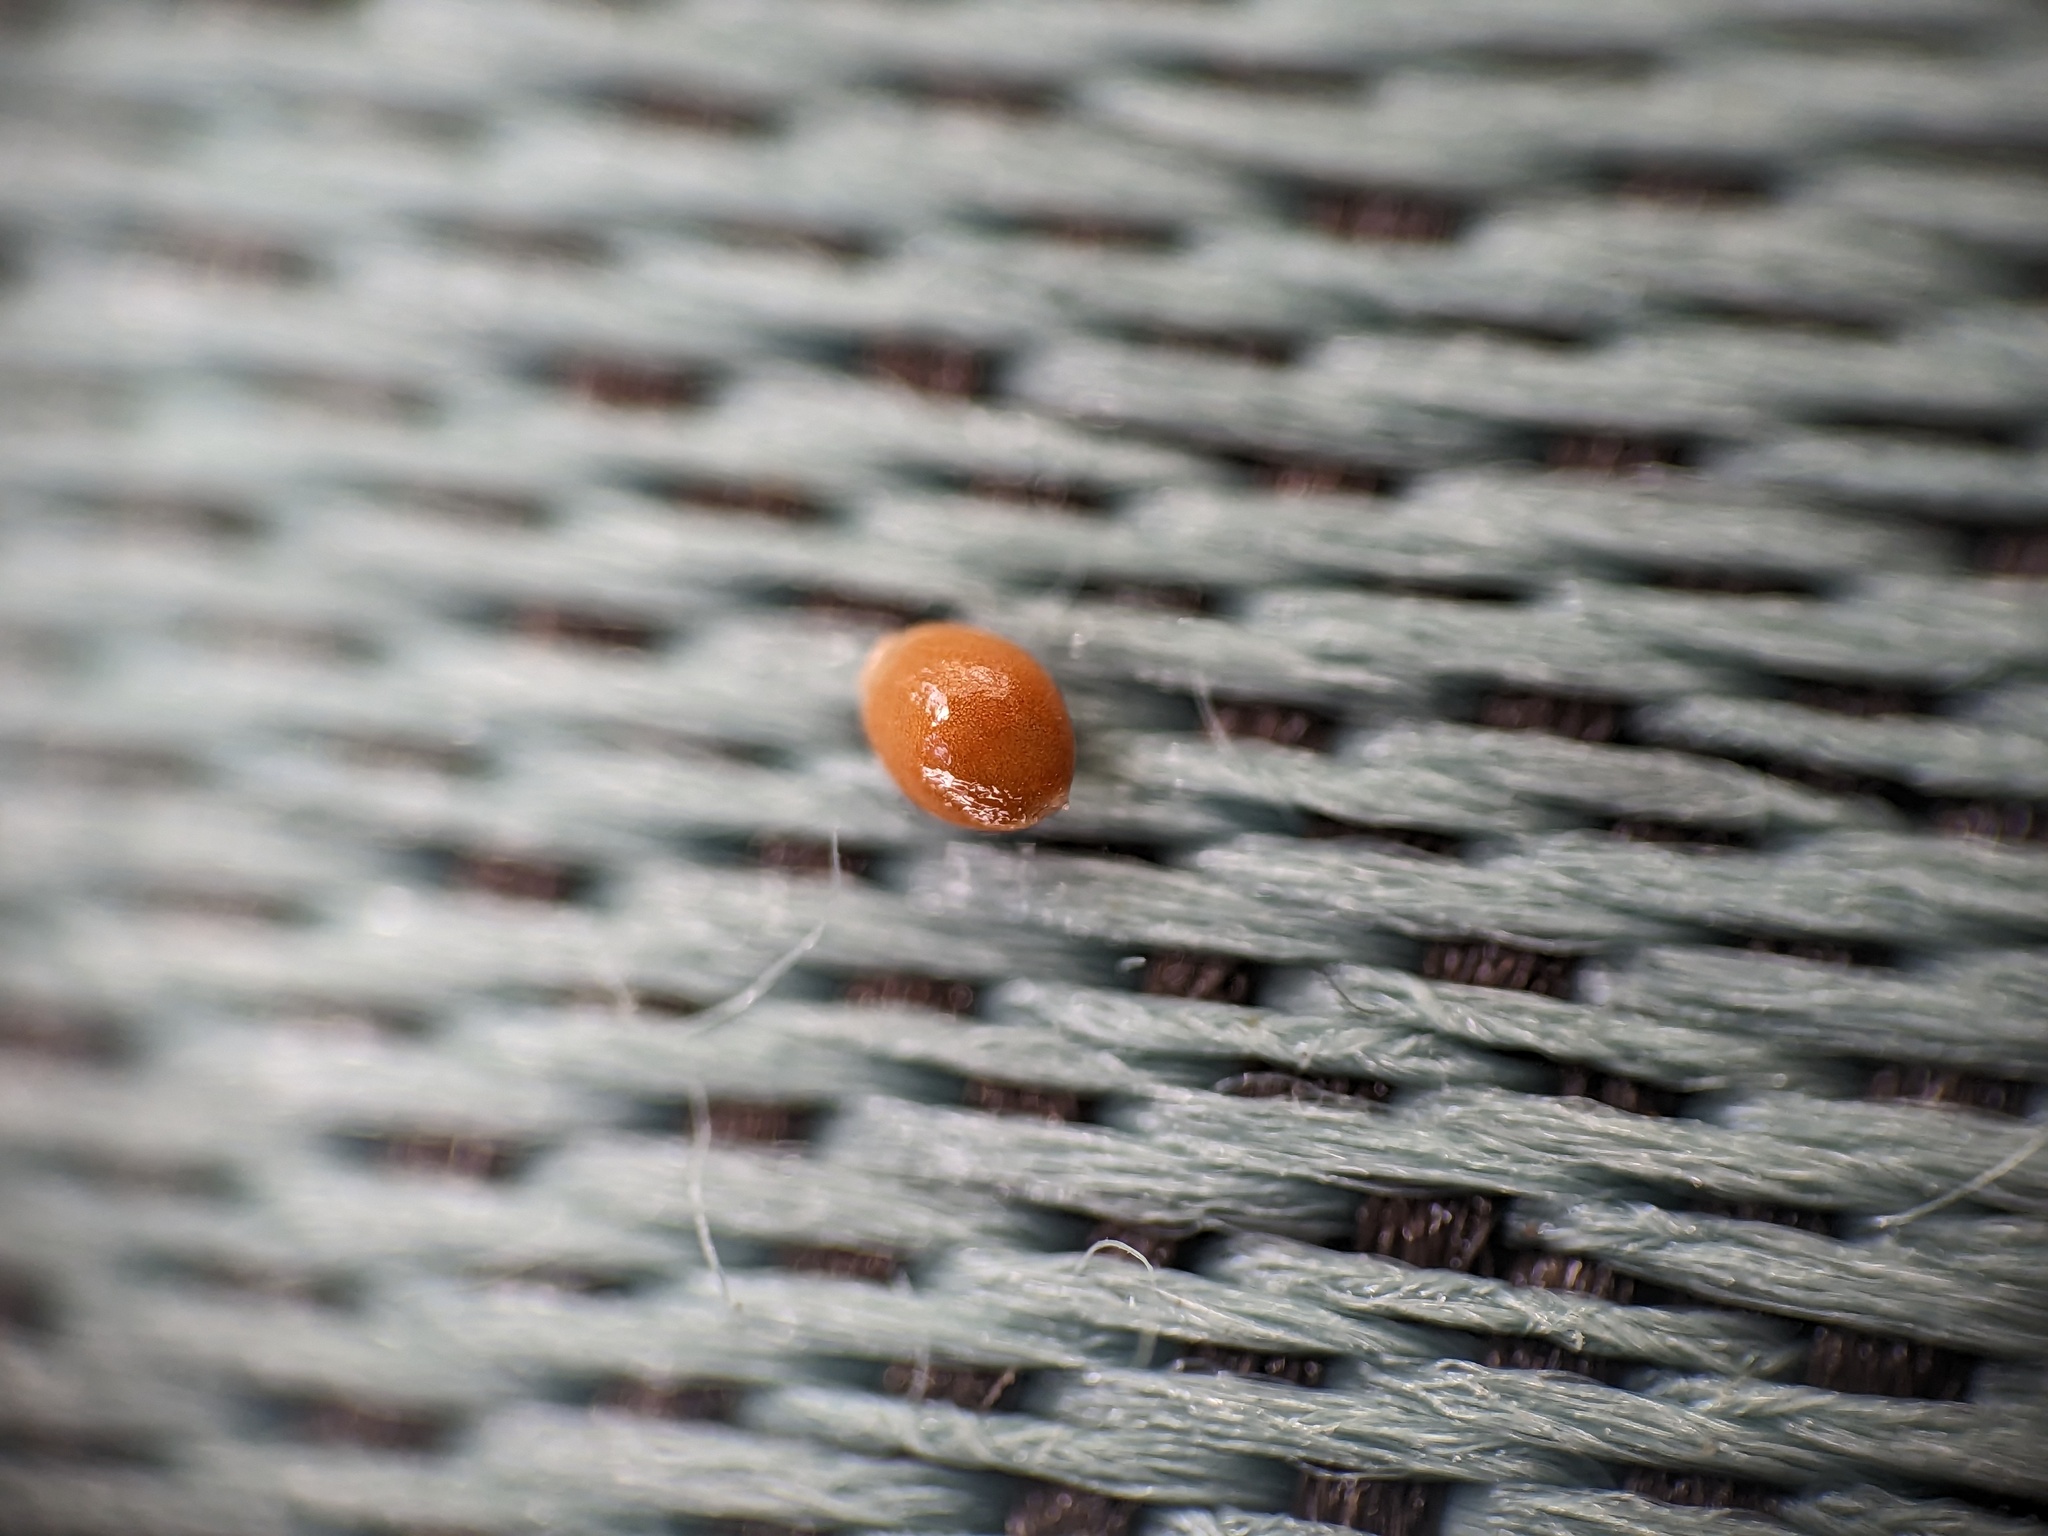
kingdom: Plantae
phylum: Tracheophyta
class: Magnoliopsida
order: Rosales
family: Urticaceae
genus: Parietaria
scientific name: Parietaria pensylvanica
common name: Pennsylvania pellitory
